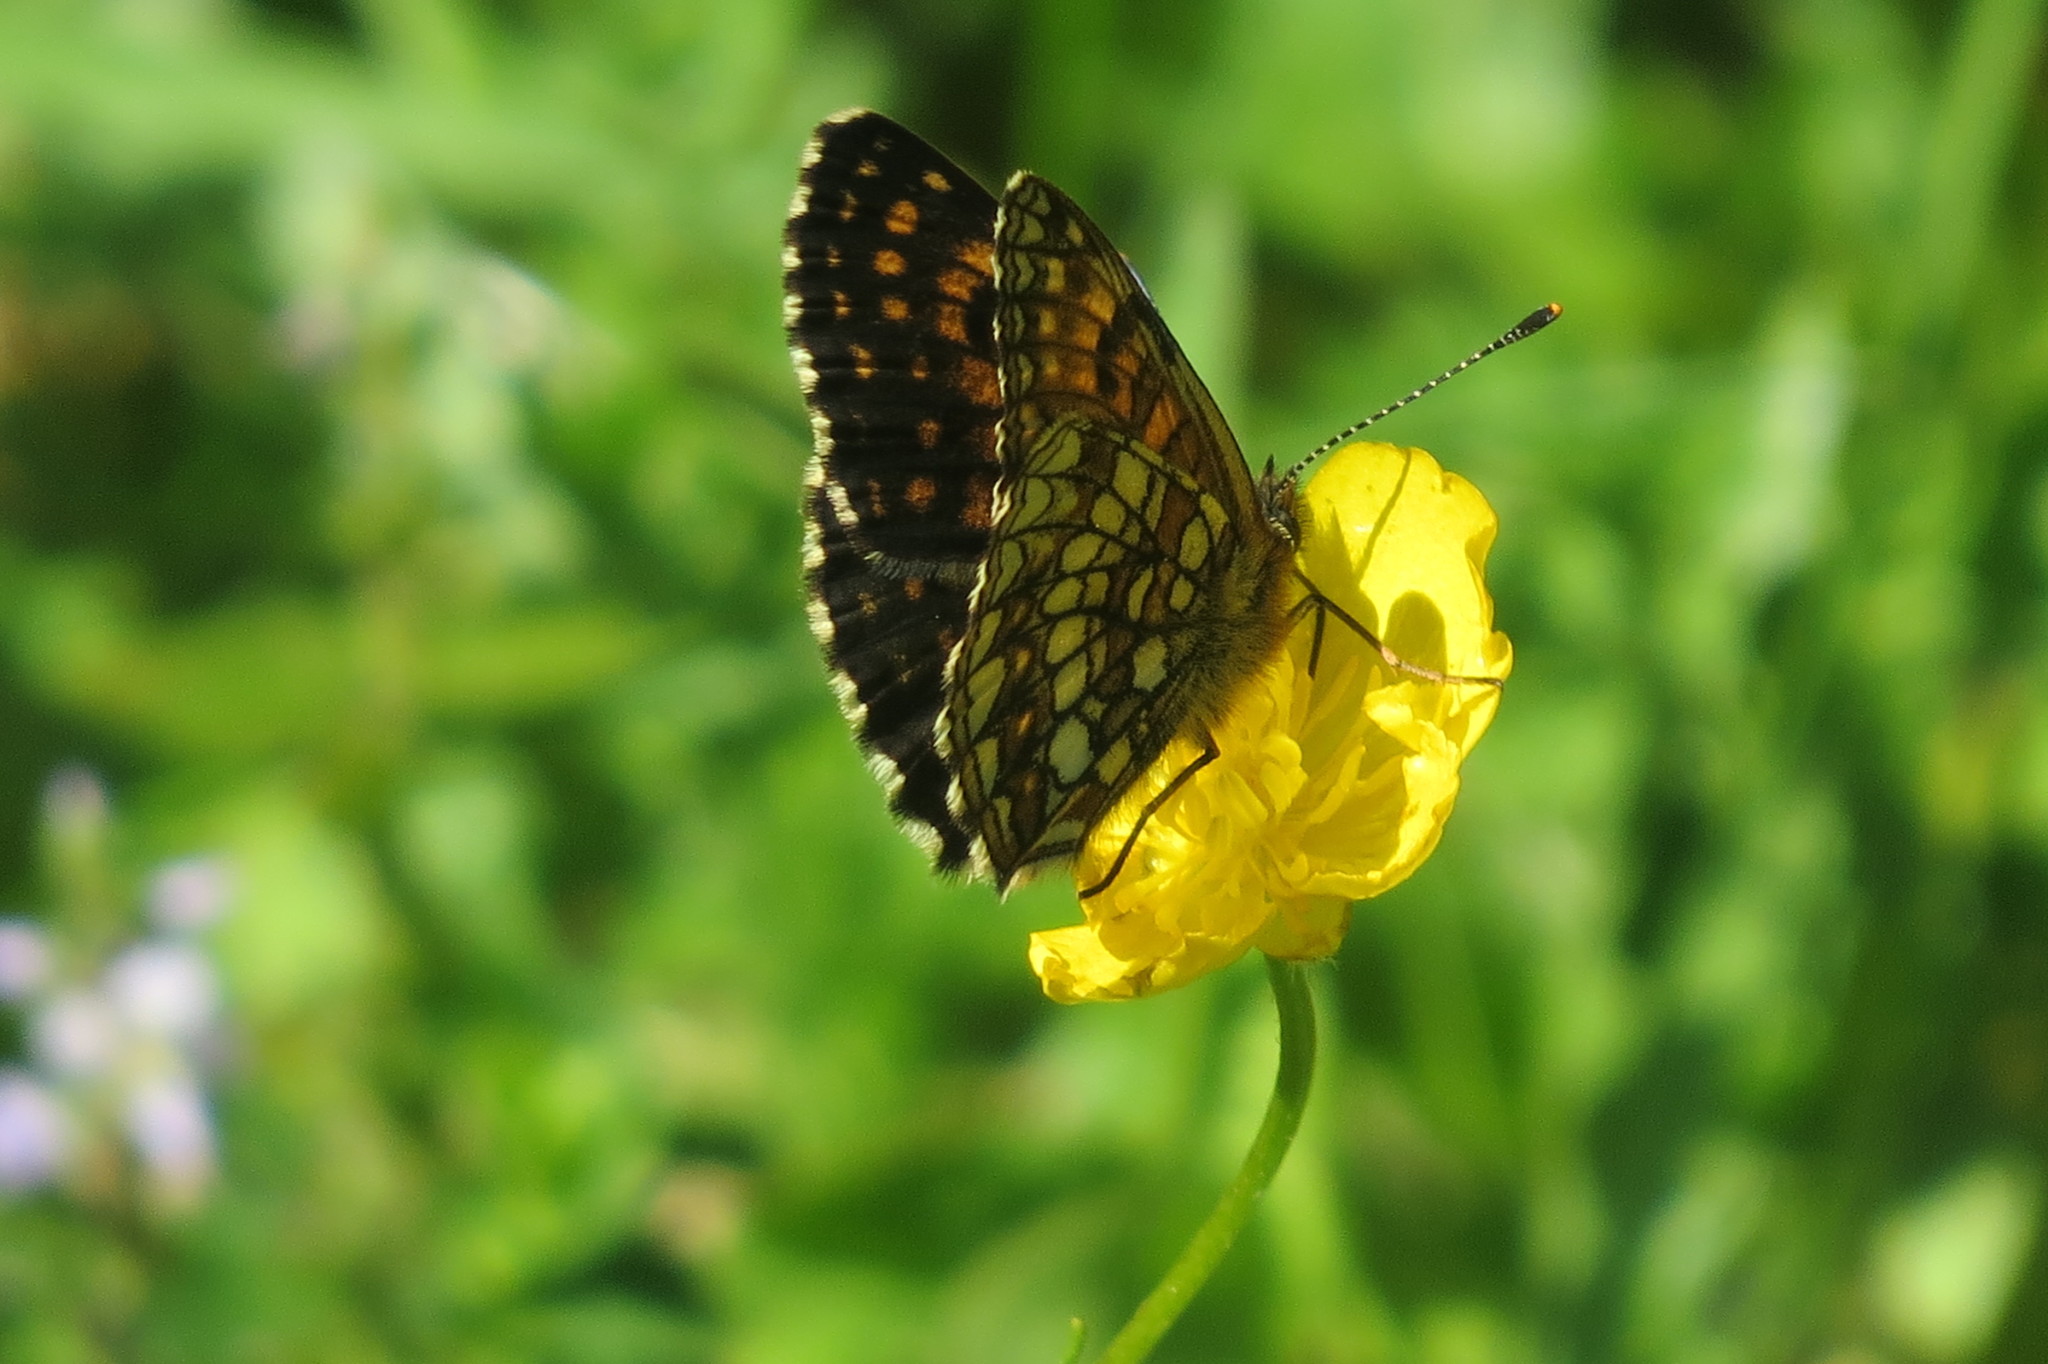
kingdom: Animalia
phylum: Arthropoda
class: Insecta
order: Lepidoptera
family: Nymphalidae
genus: Melitaea
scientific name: Melitaea diamina
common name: False heath fritillary
